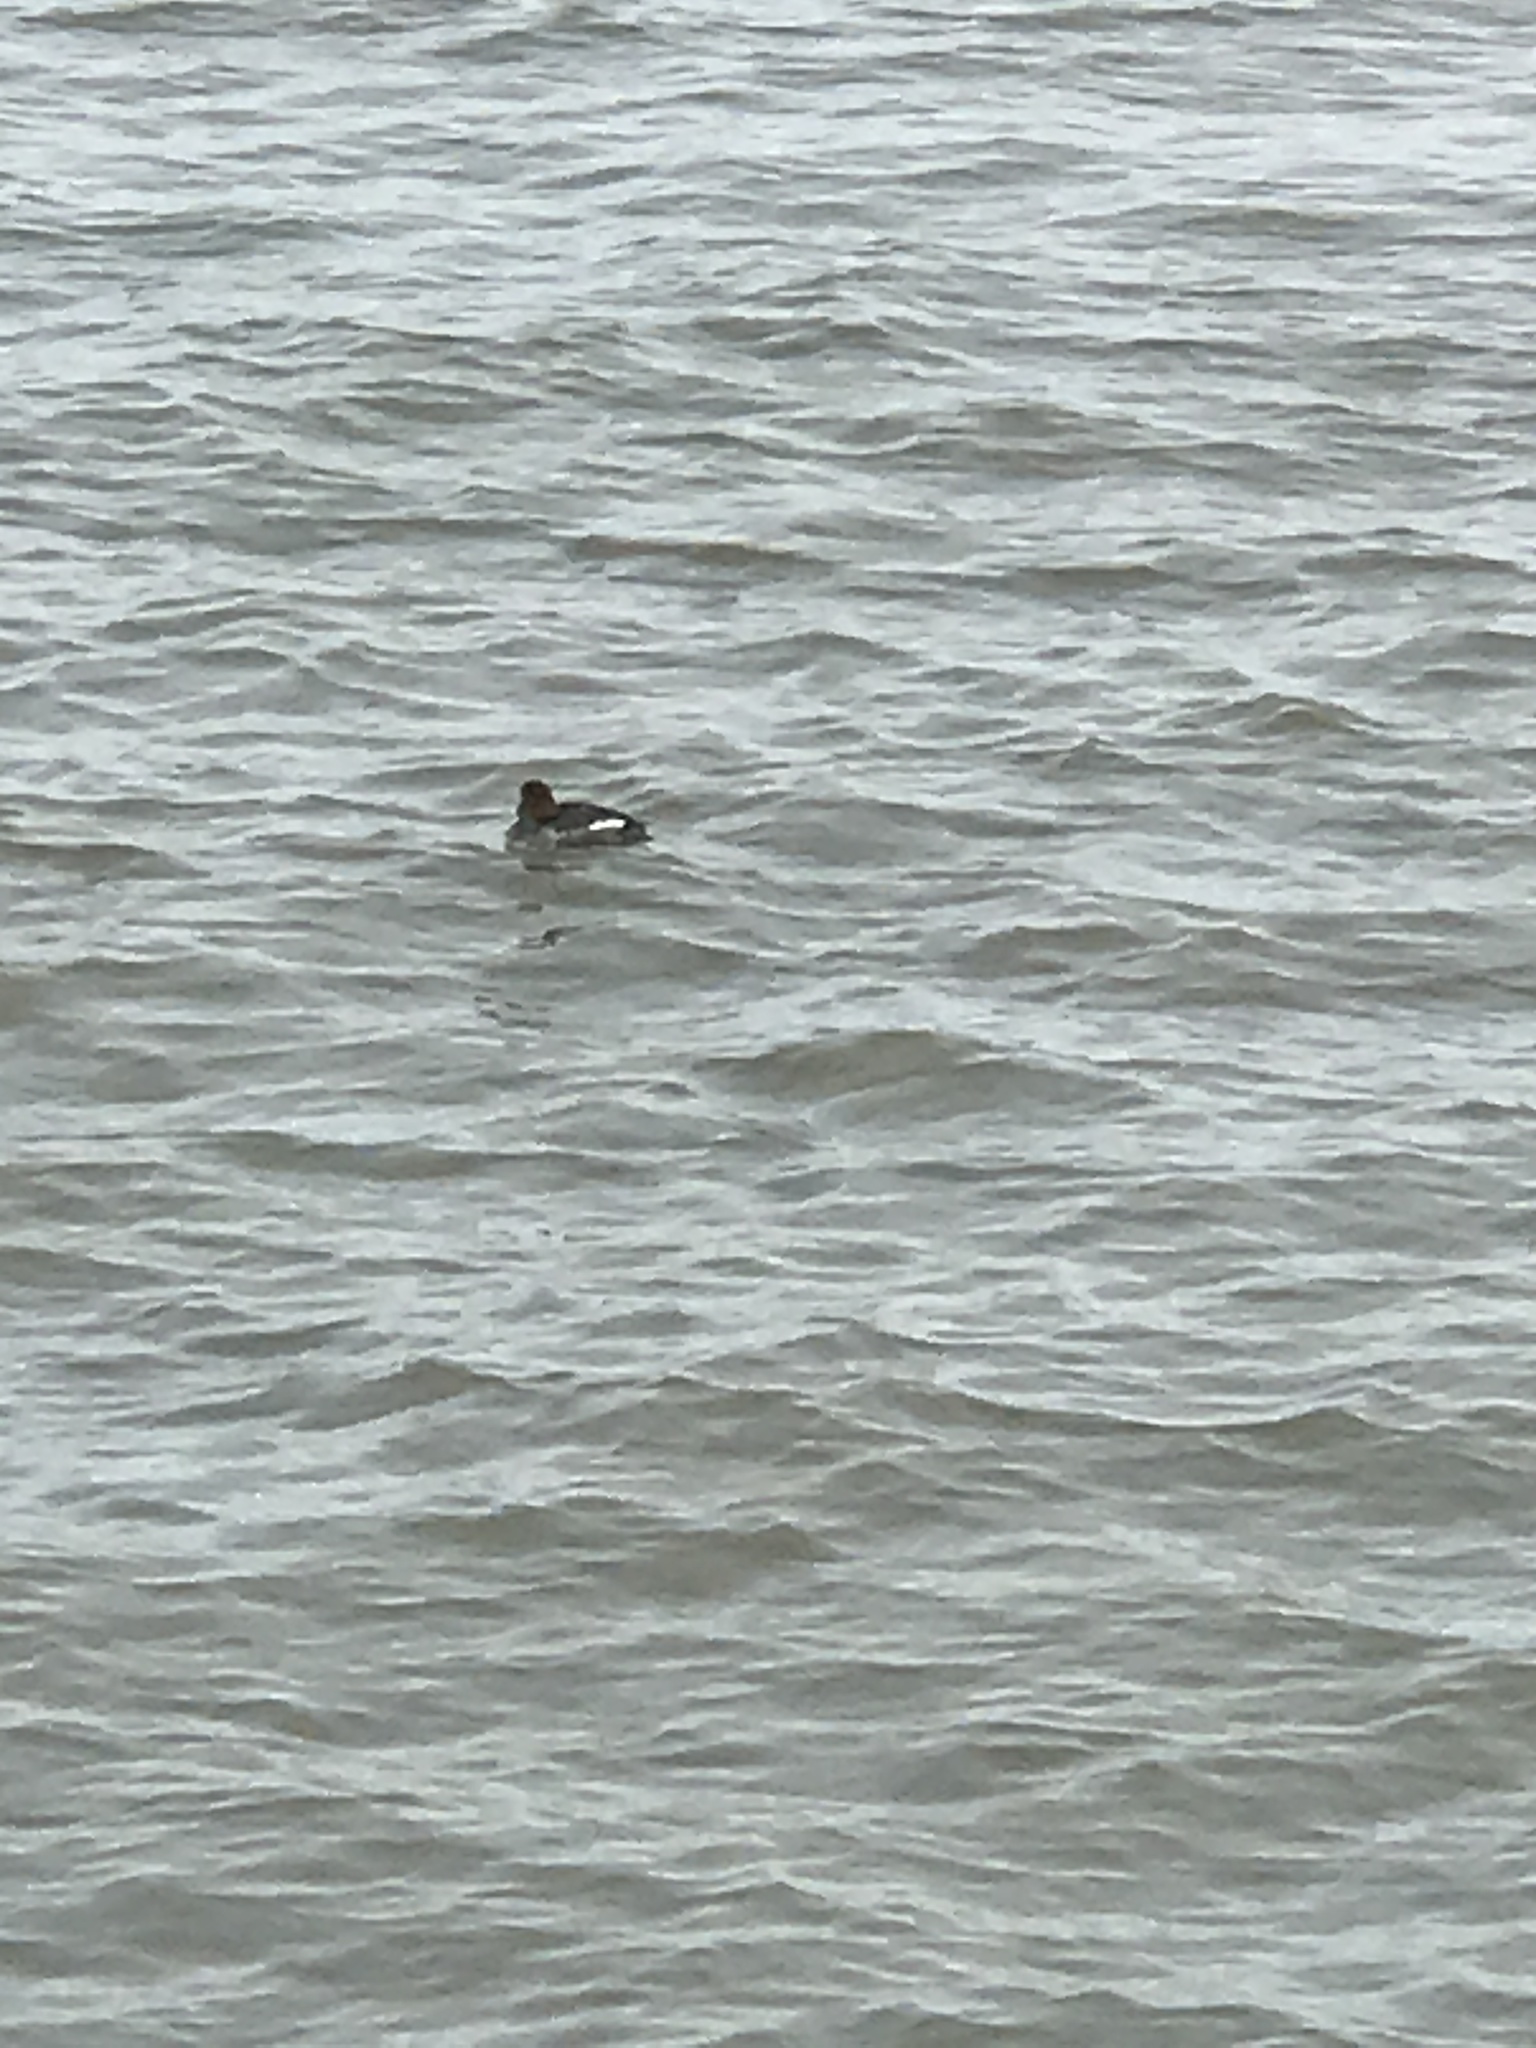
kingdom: Animalia
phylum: Chordata
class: Aves
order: Anseriformes
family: Anatidae
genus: Bucephala
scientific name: Bucephala clangula
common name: Common goldeneye
